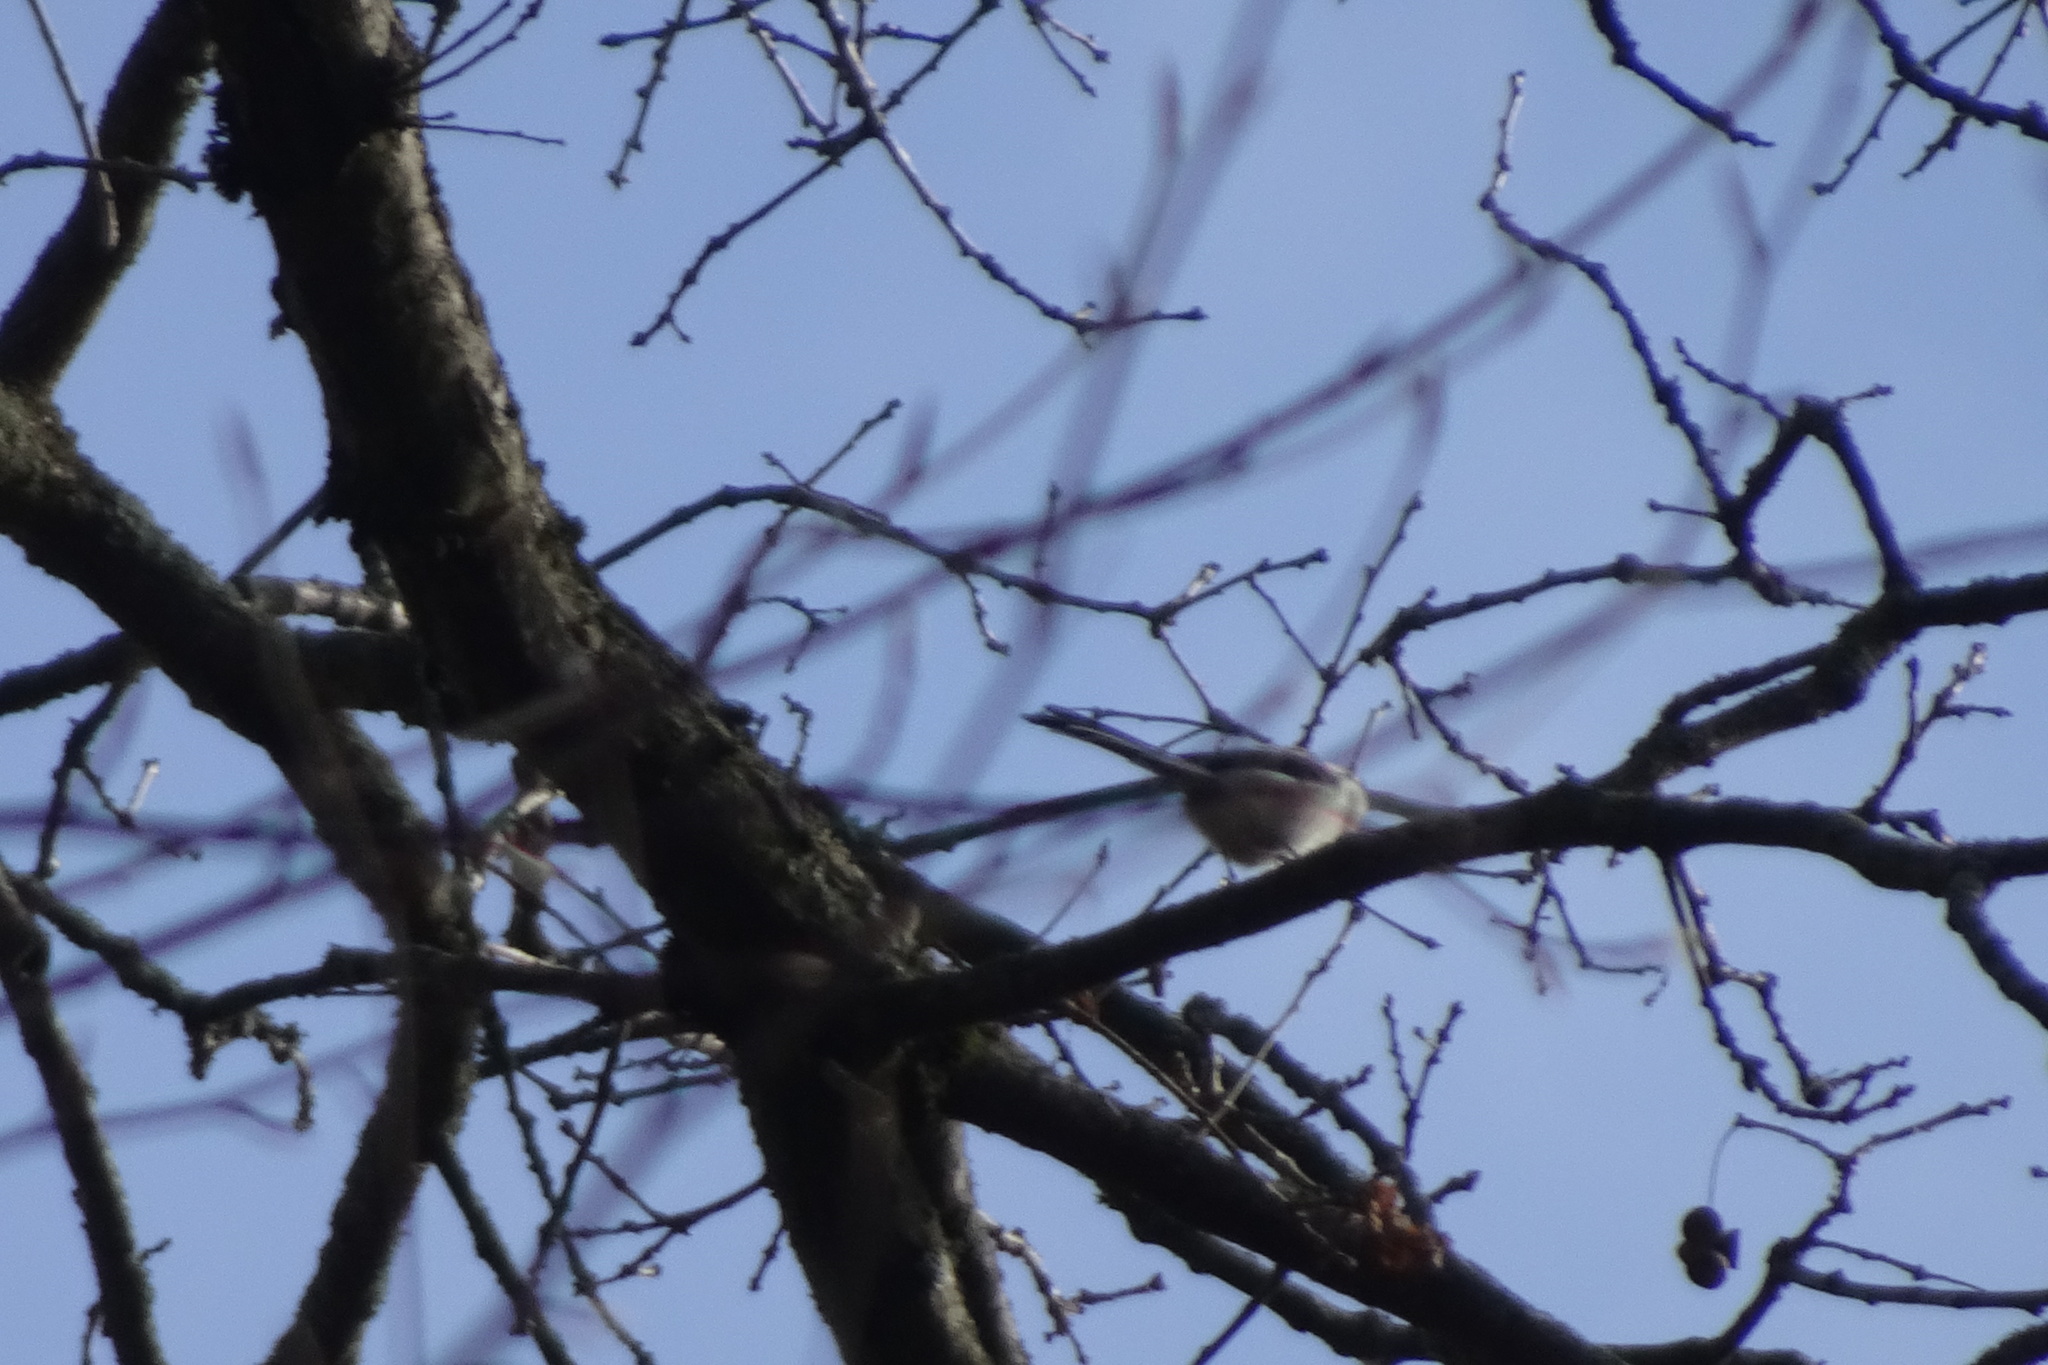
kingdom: Animalia
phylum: Chordata
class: Aves
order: Passeriformes
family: Aegithalidae
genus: Aegithalos
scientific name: Aegithalos caudatus
